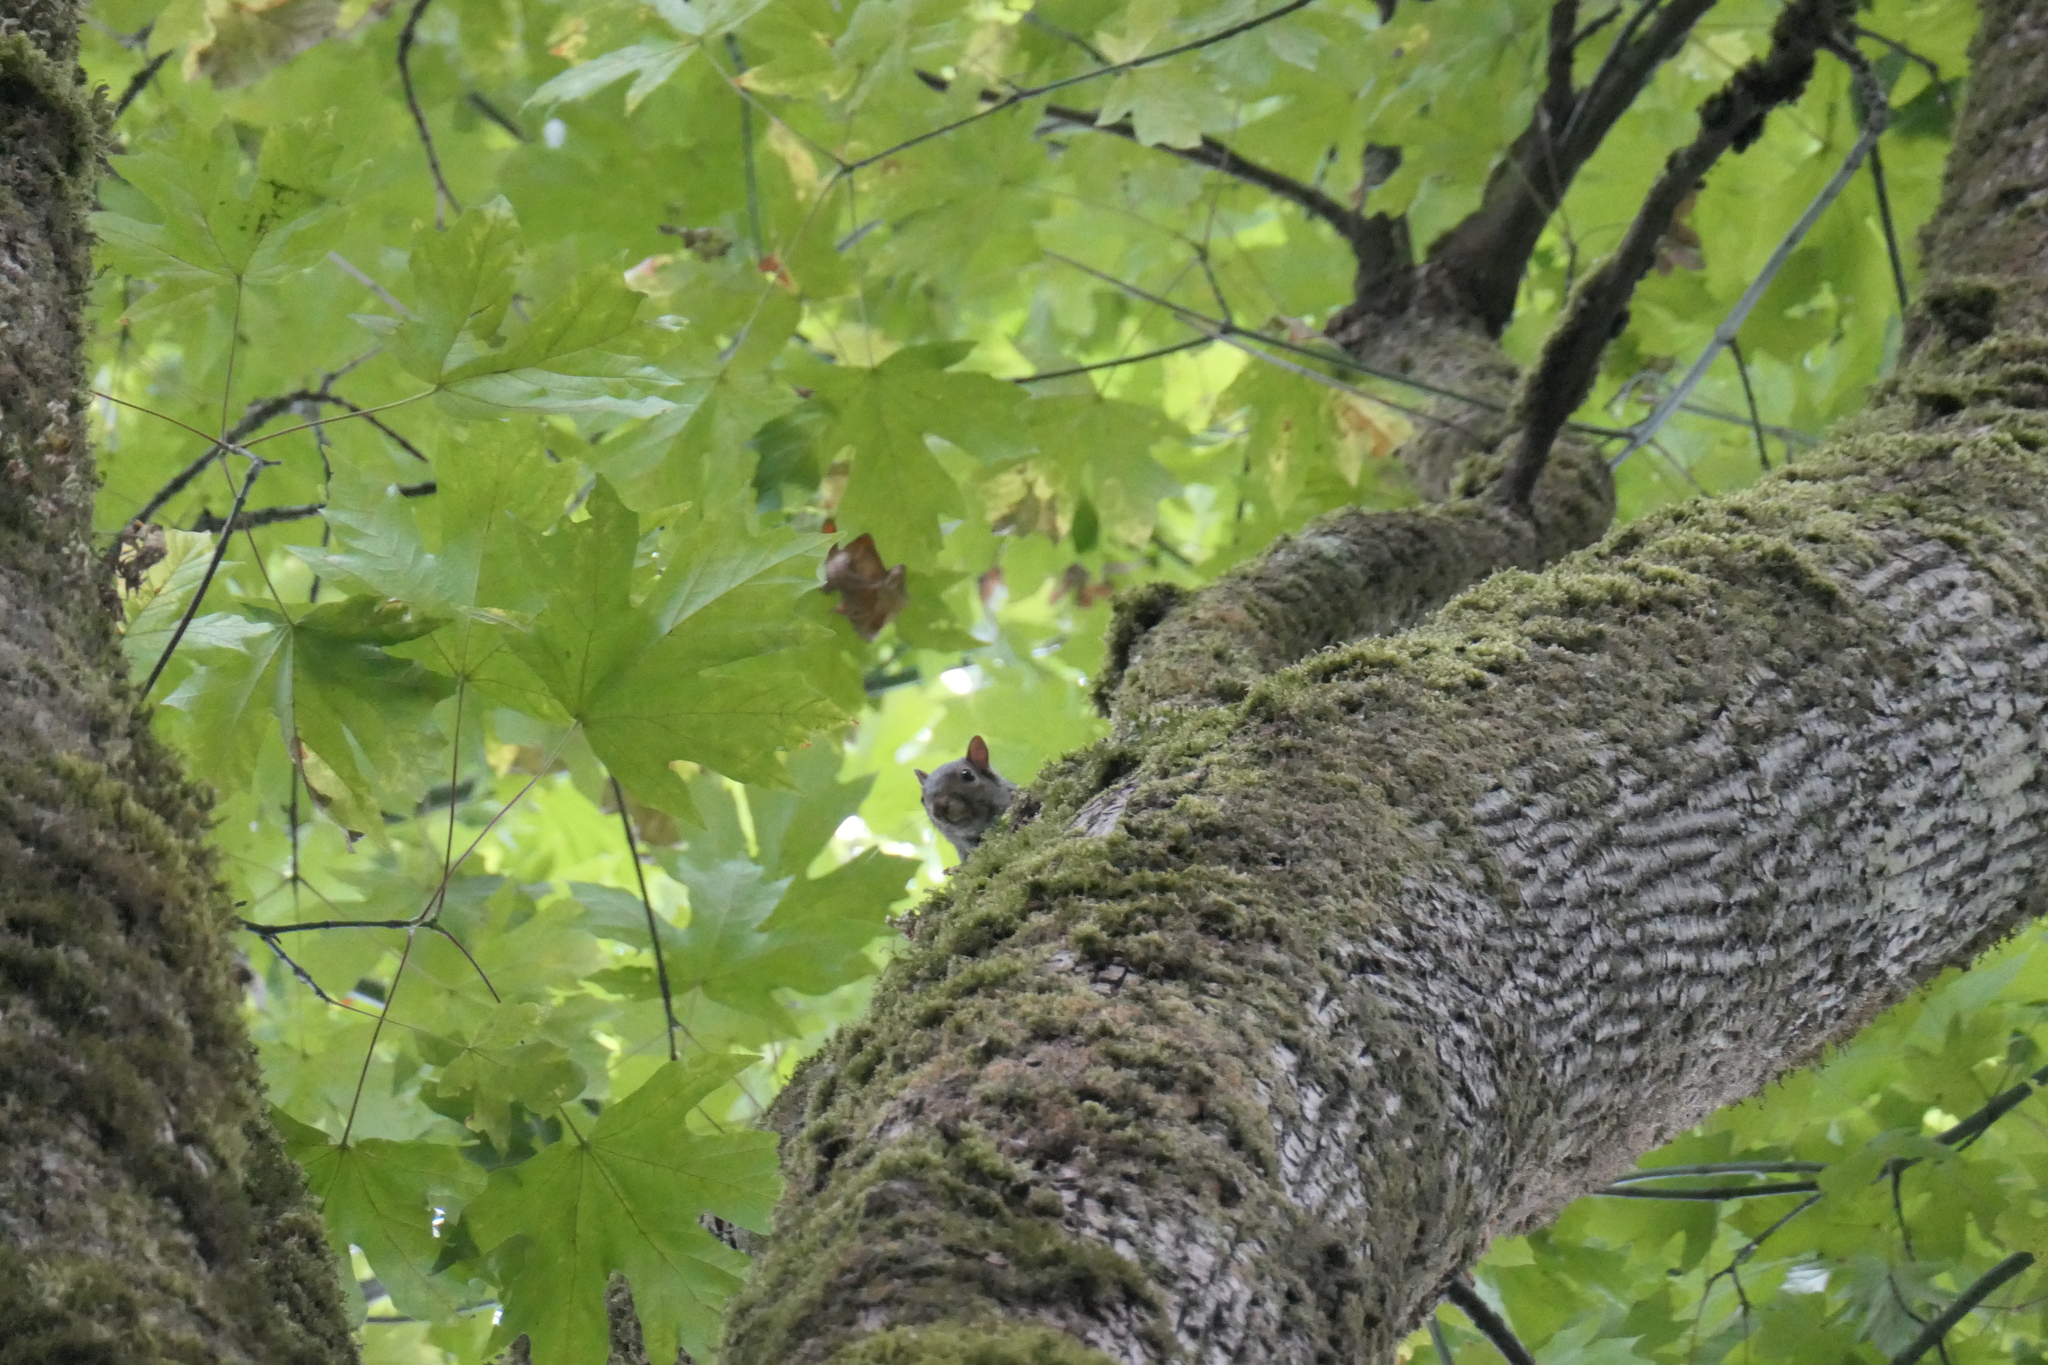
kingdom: Animalia
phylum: Chordata
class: Mammalia
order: Rodentia
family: Sciuridae
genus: Sciurus
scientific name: Sciurus carolinensis
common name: Eastern gray squirrel
